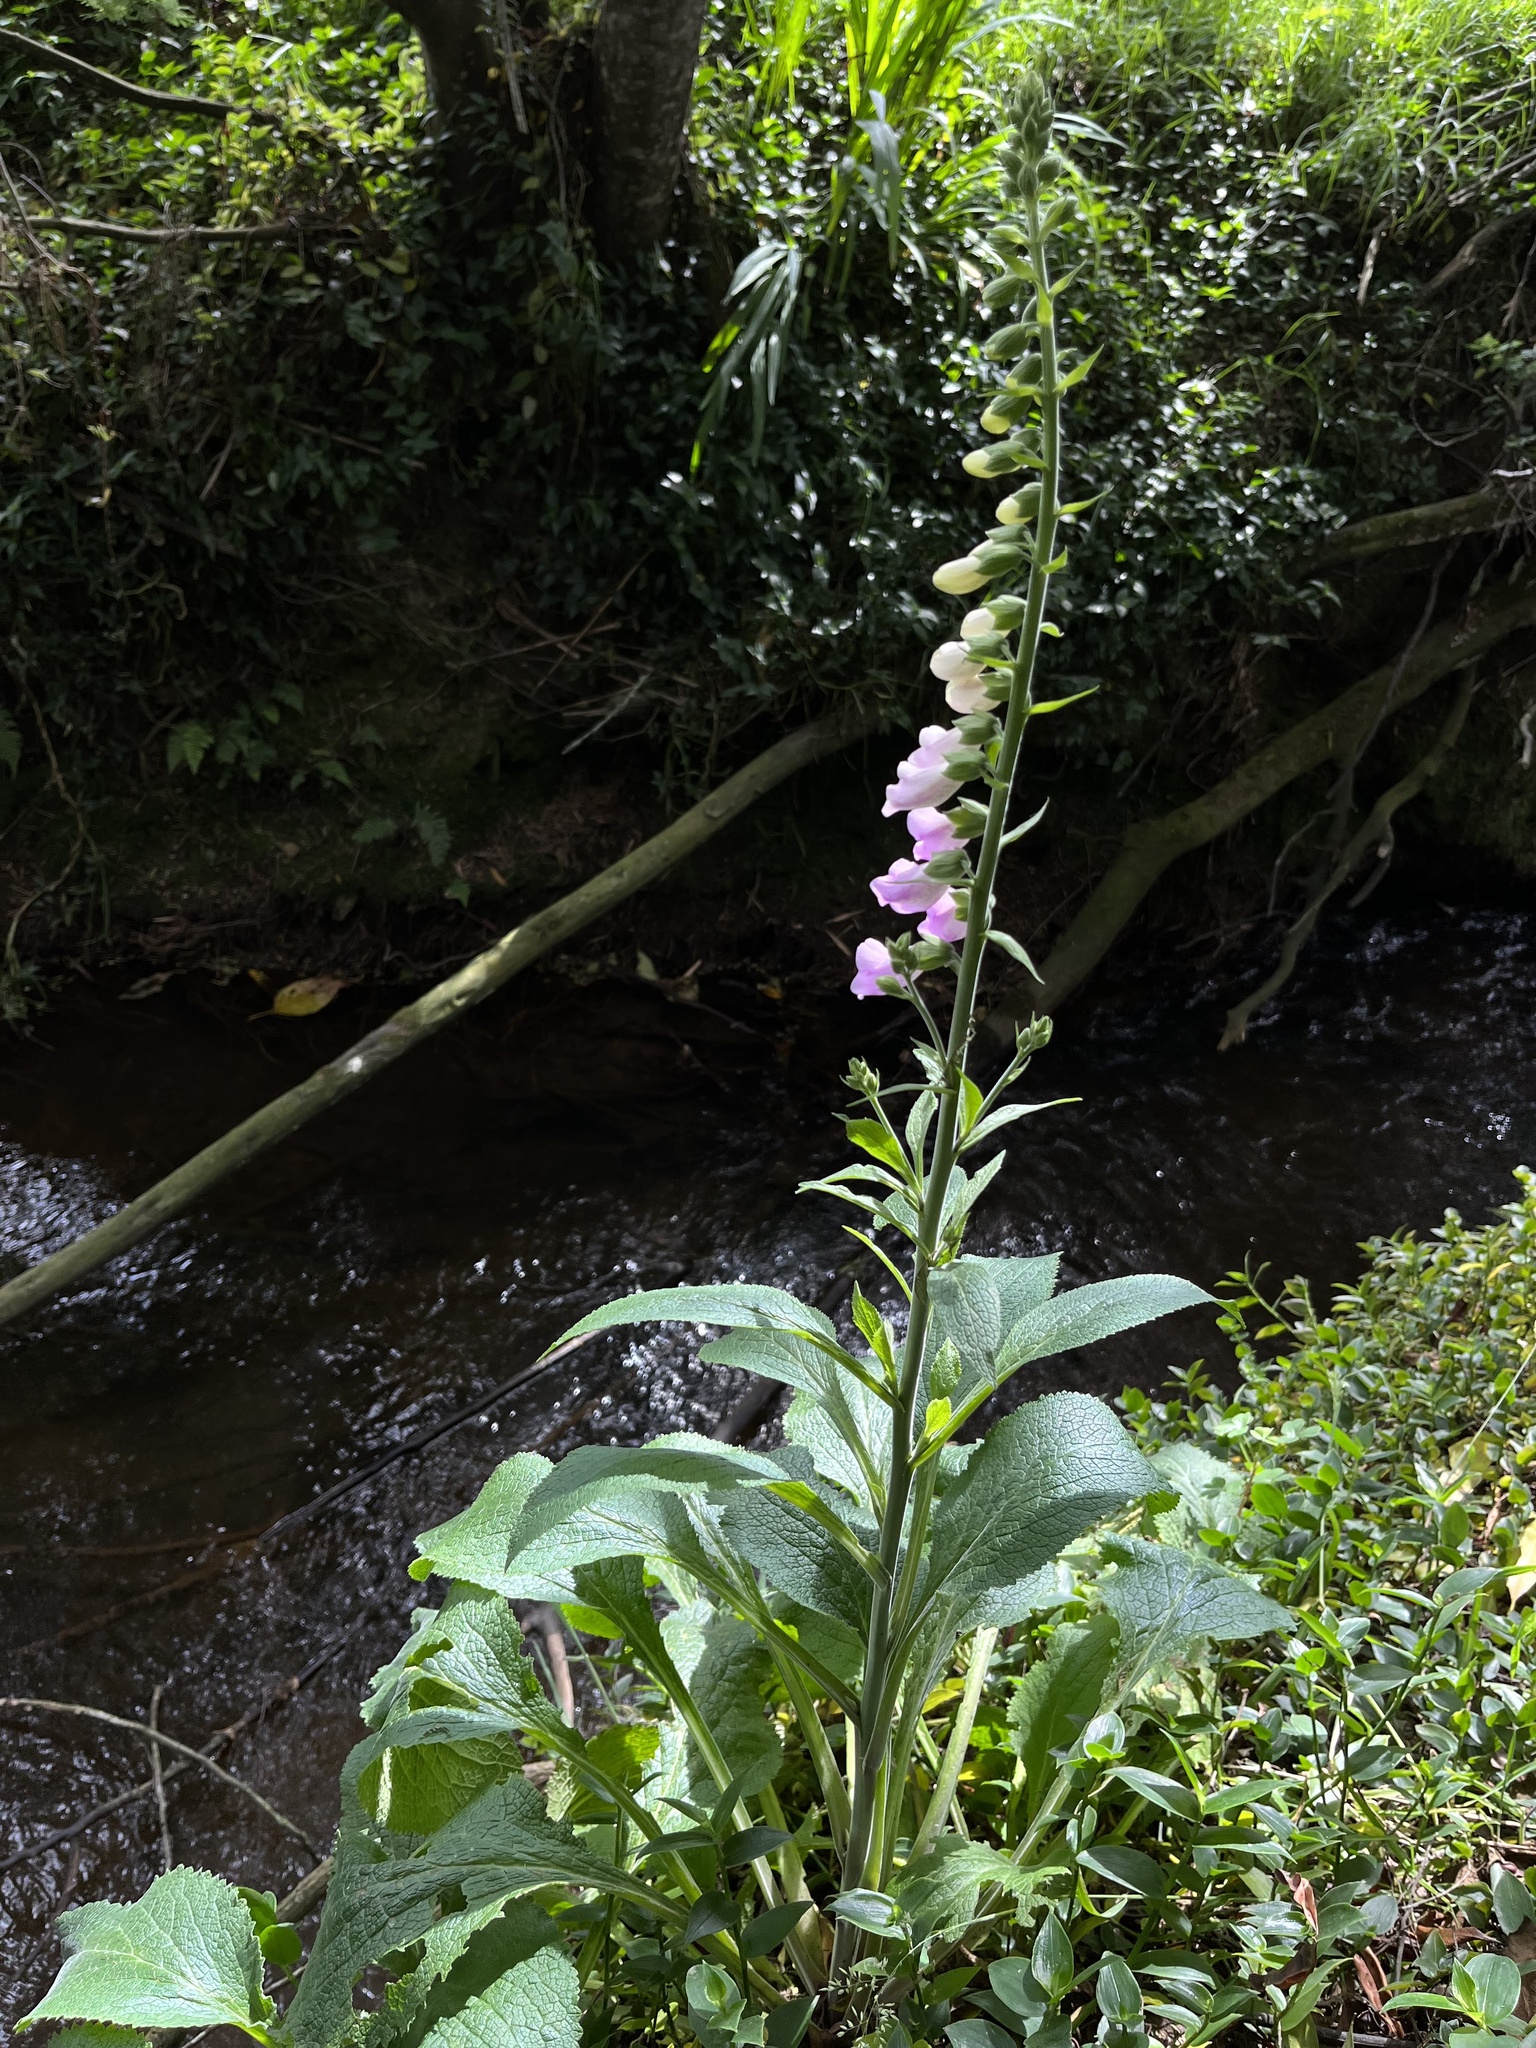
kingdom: Plantae
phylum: Tracheophyta
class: Magnoliopsida
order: Lamiales
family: Plantaginaceae
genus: Digitalis
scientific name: Digitalis purpurea
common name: Foxglove
